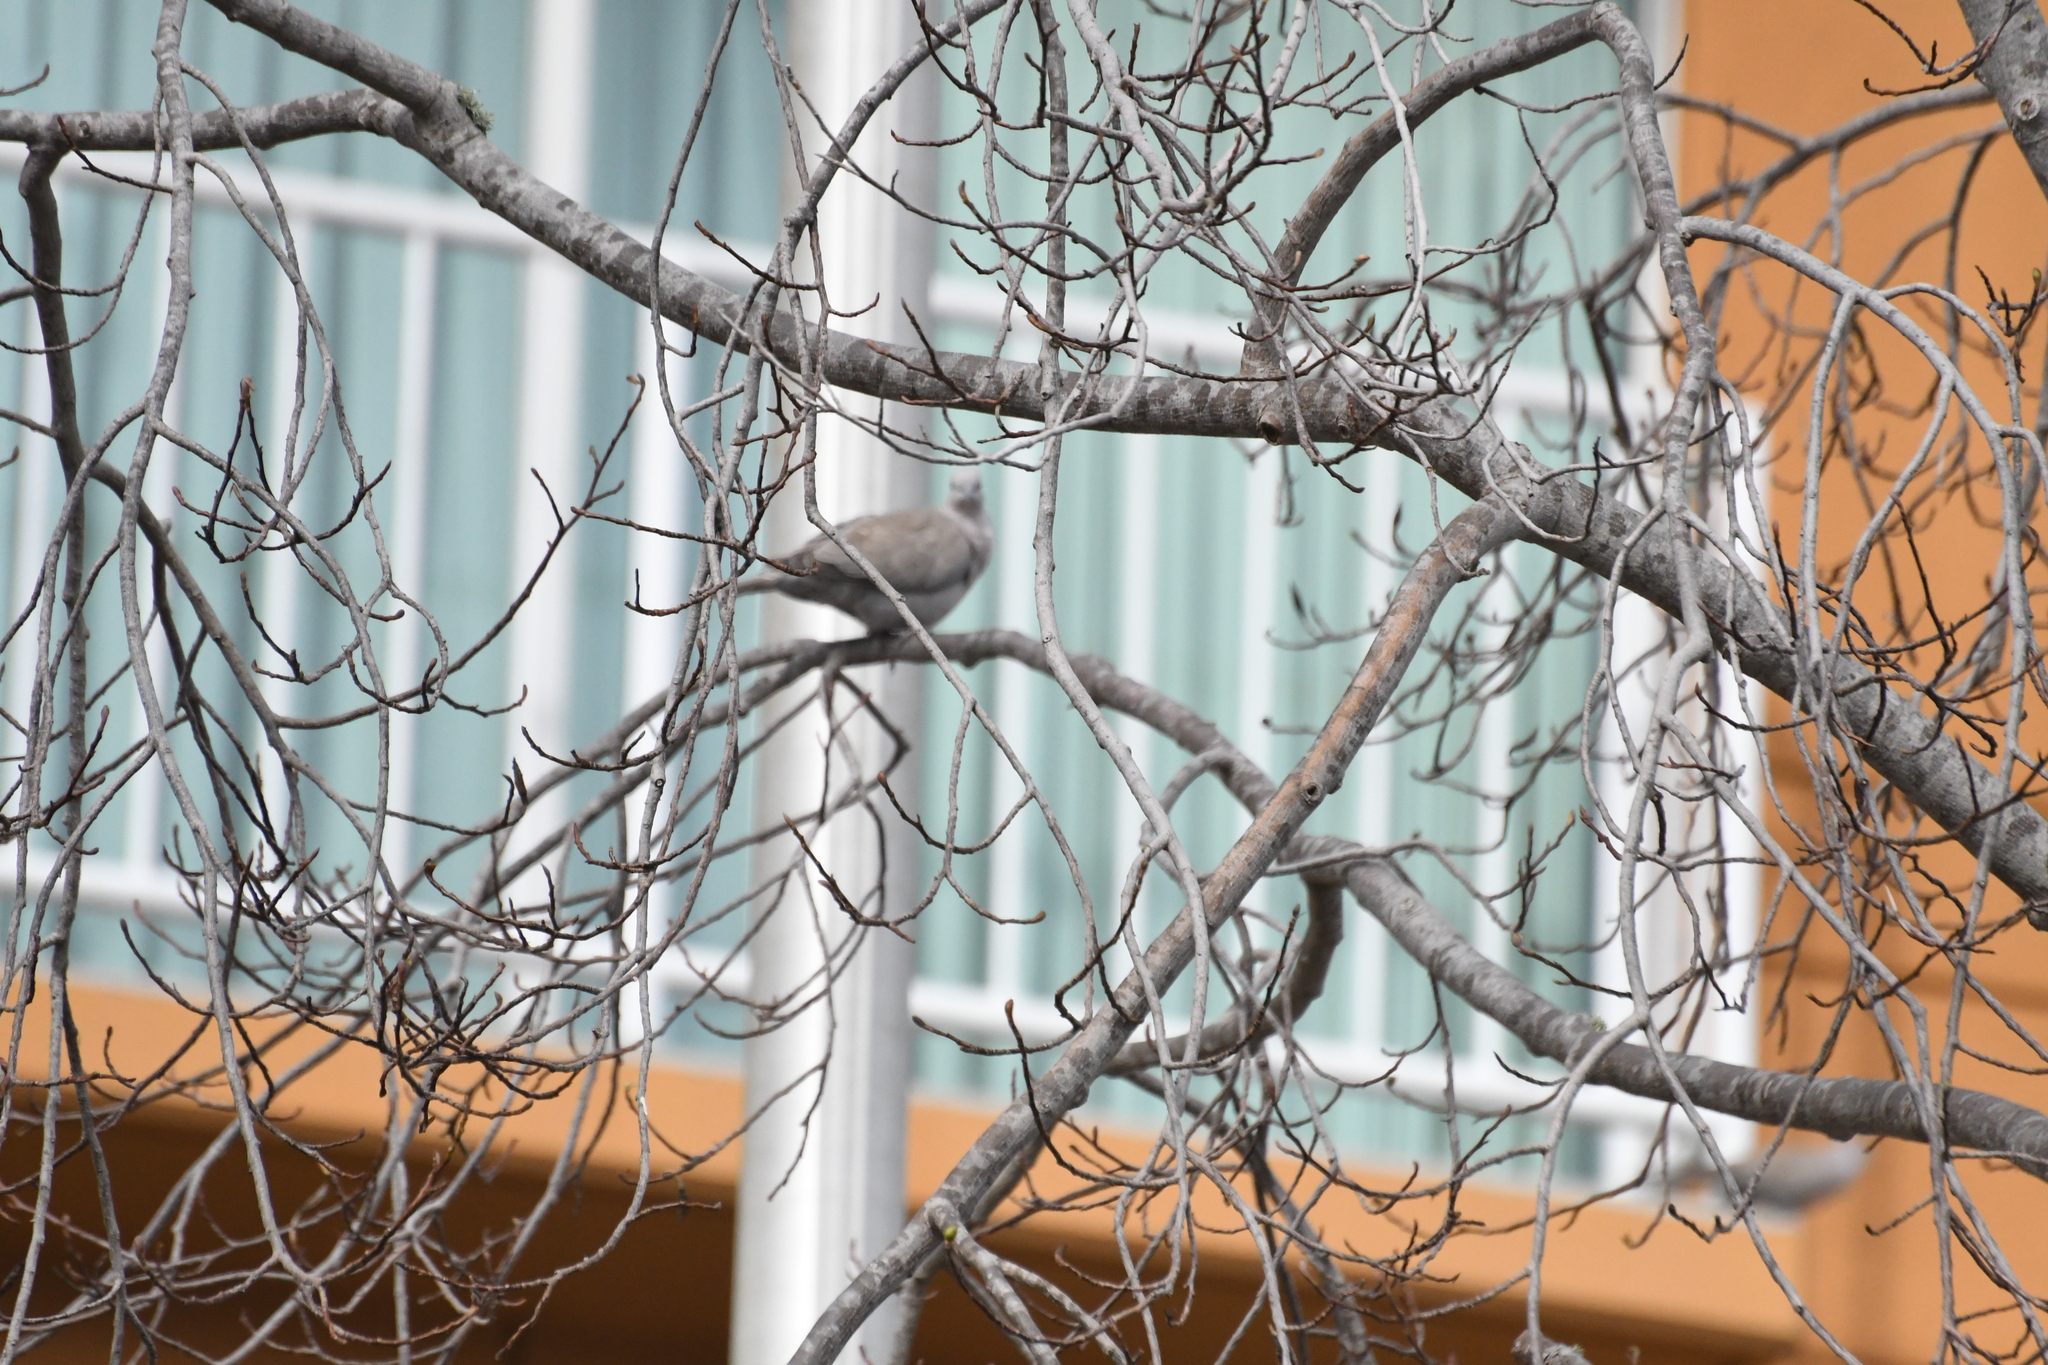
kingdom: Animalia
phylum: Chordata
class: Aves
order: Columbiformes
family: Columbidae
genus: Streptopelia
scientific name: Streptopelia decaocto
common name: Eurasian collared dove
